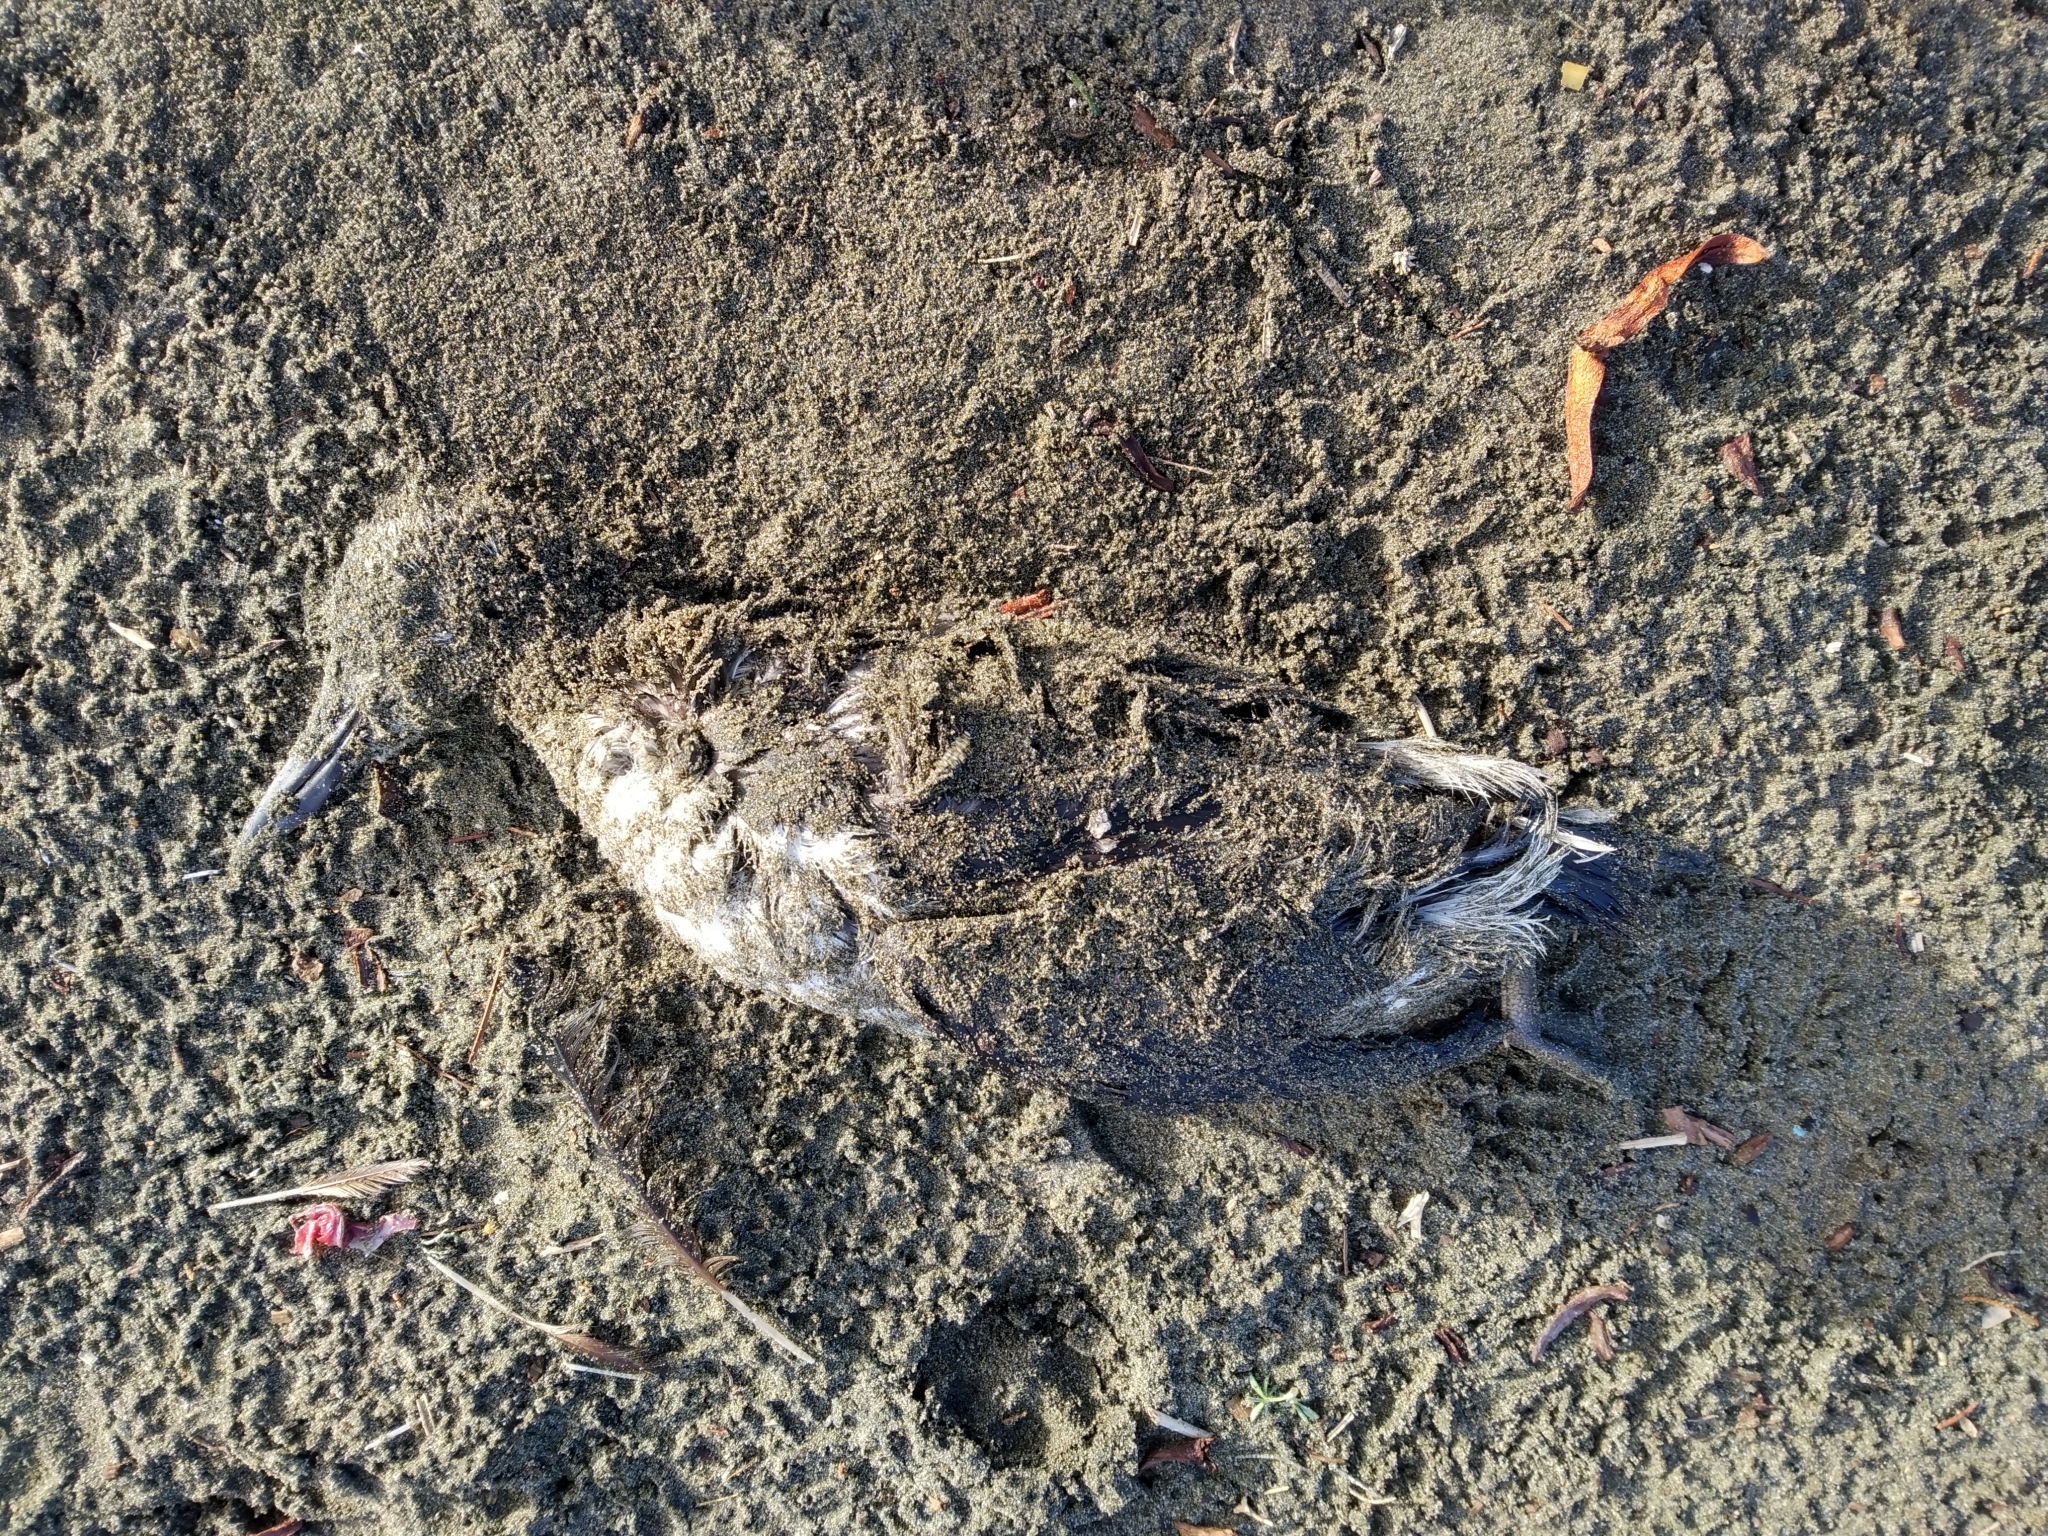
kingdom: Animalia
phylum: Chordata
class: Aves
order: Charadriiformes
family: Alcidae
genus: Uria
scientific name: Uria aalge
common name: Common murre
